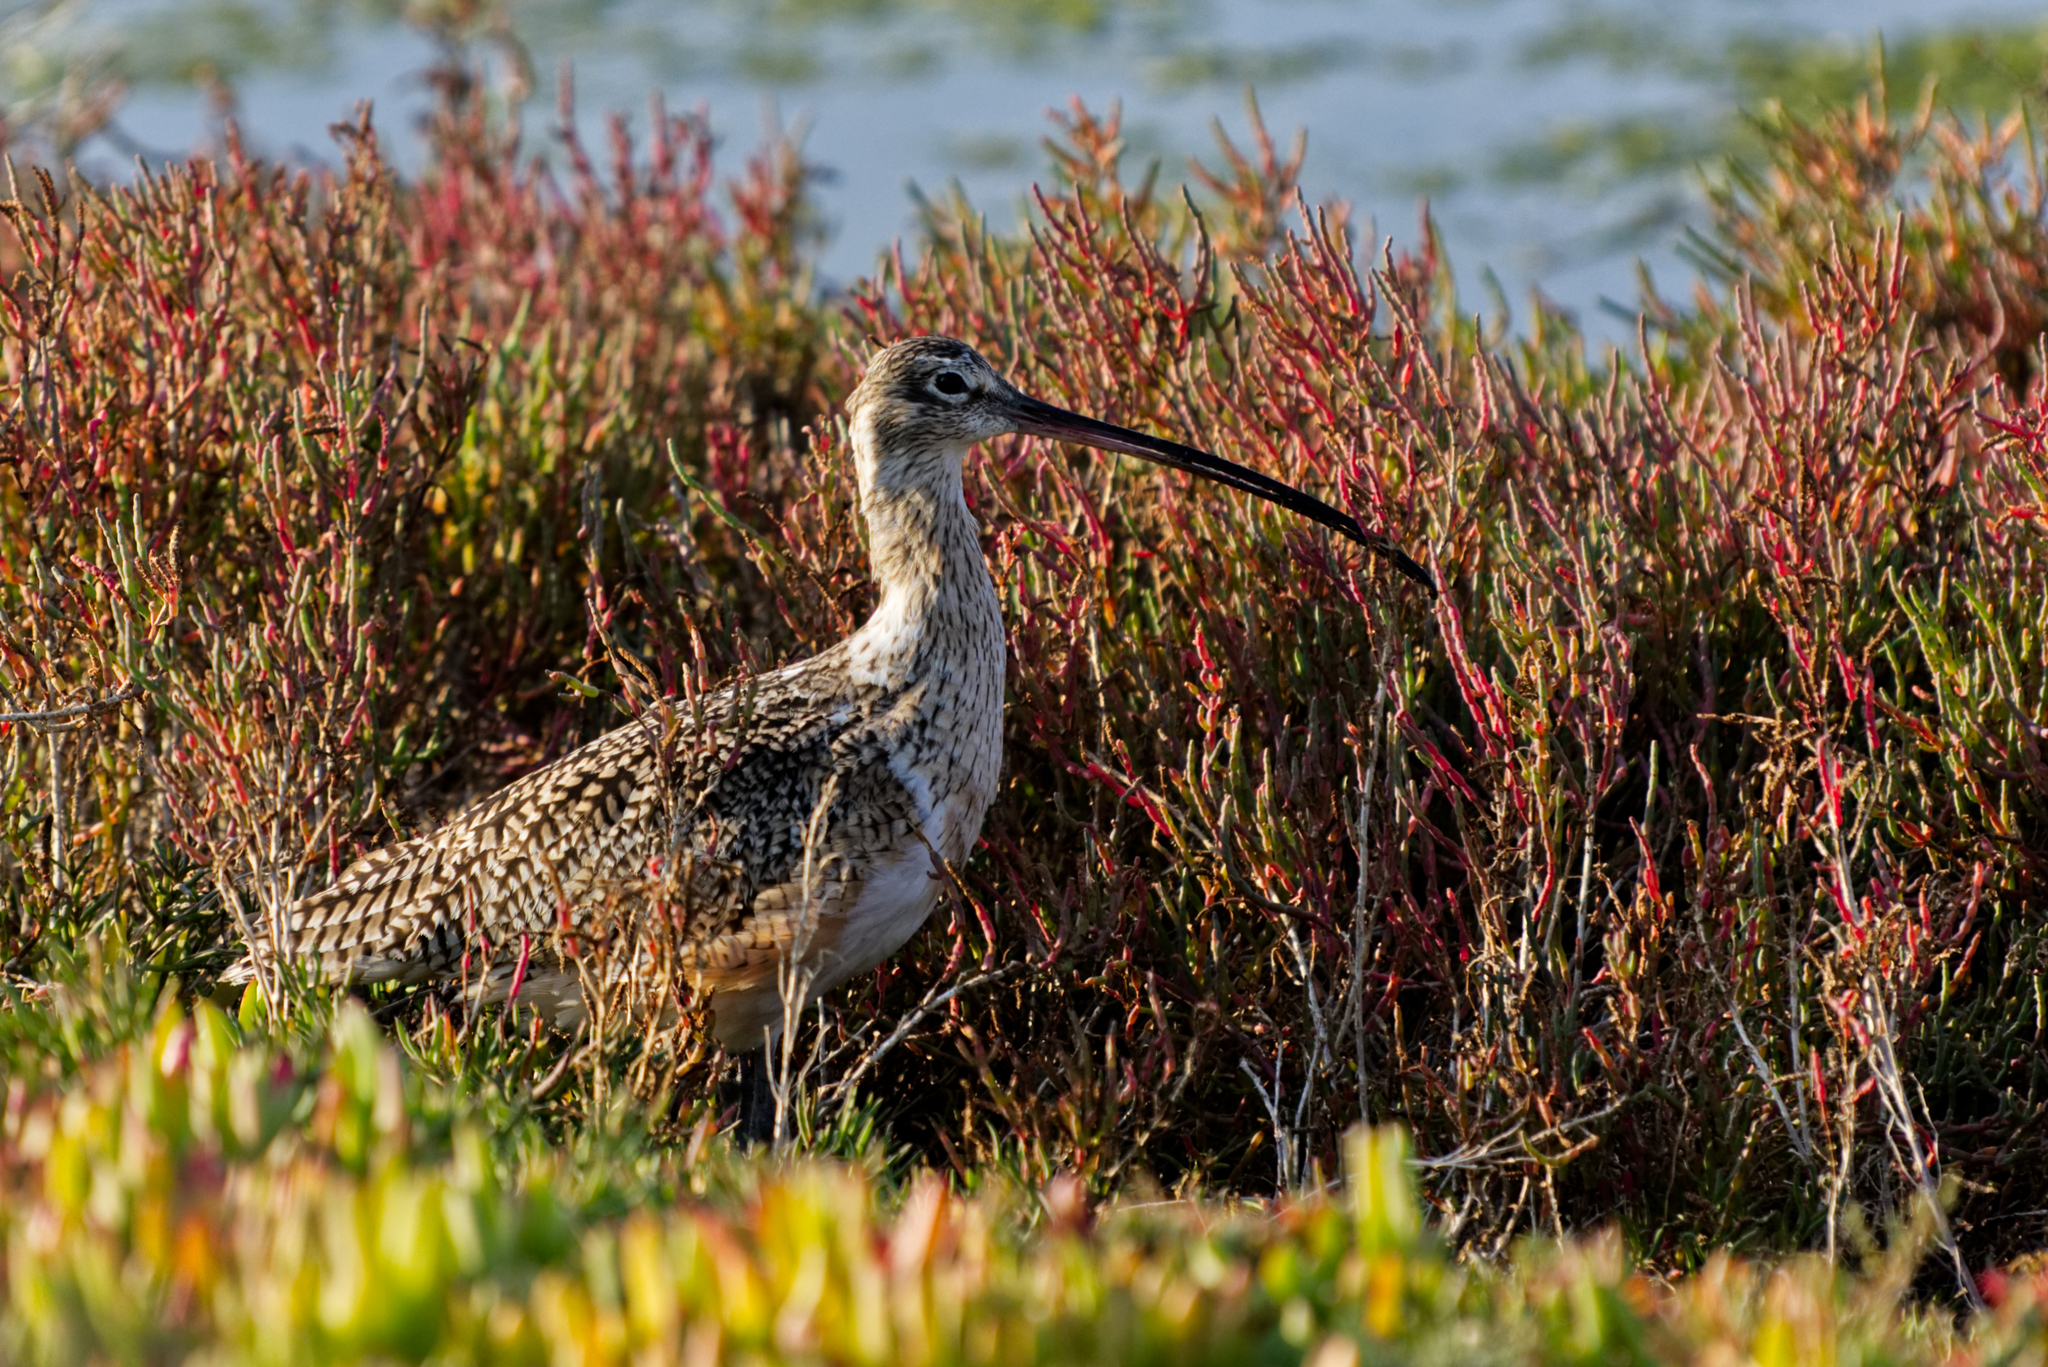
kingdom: Animalia
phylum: Chordata
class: Aves
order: Charadriiformes
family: Scolopacidae
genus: Numenius
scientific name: Numenius americanus
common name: Long-billed curlew
